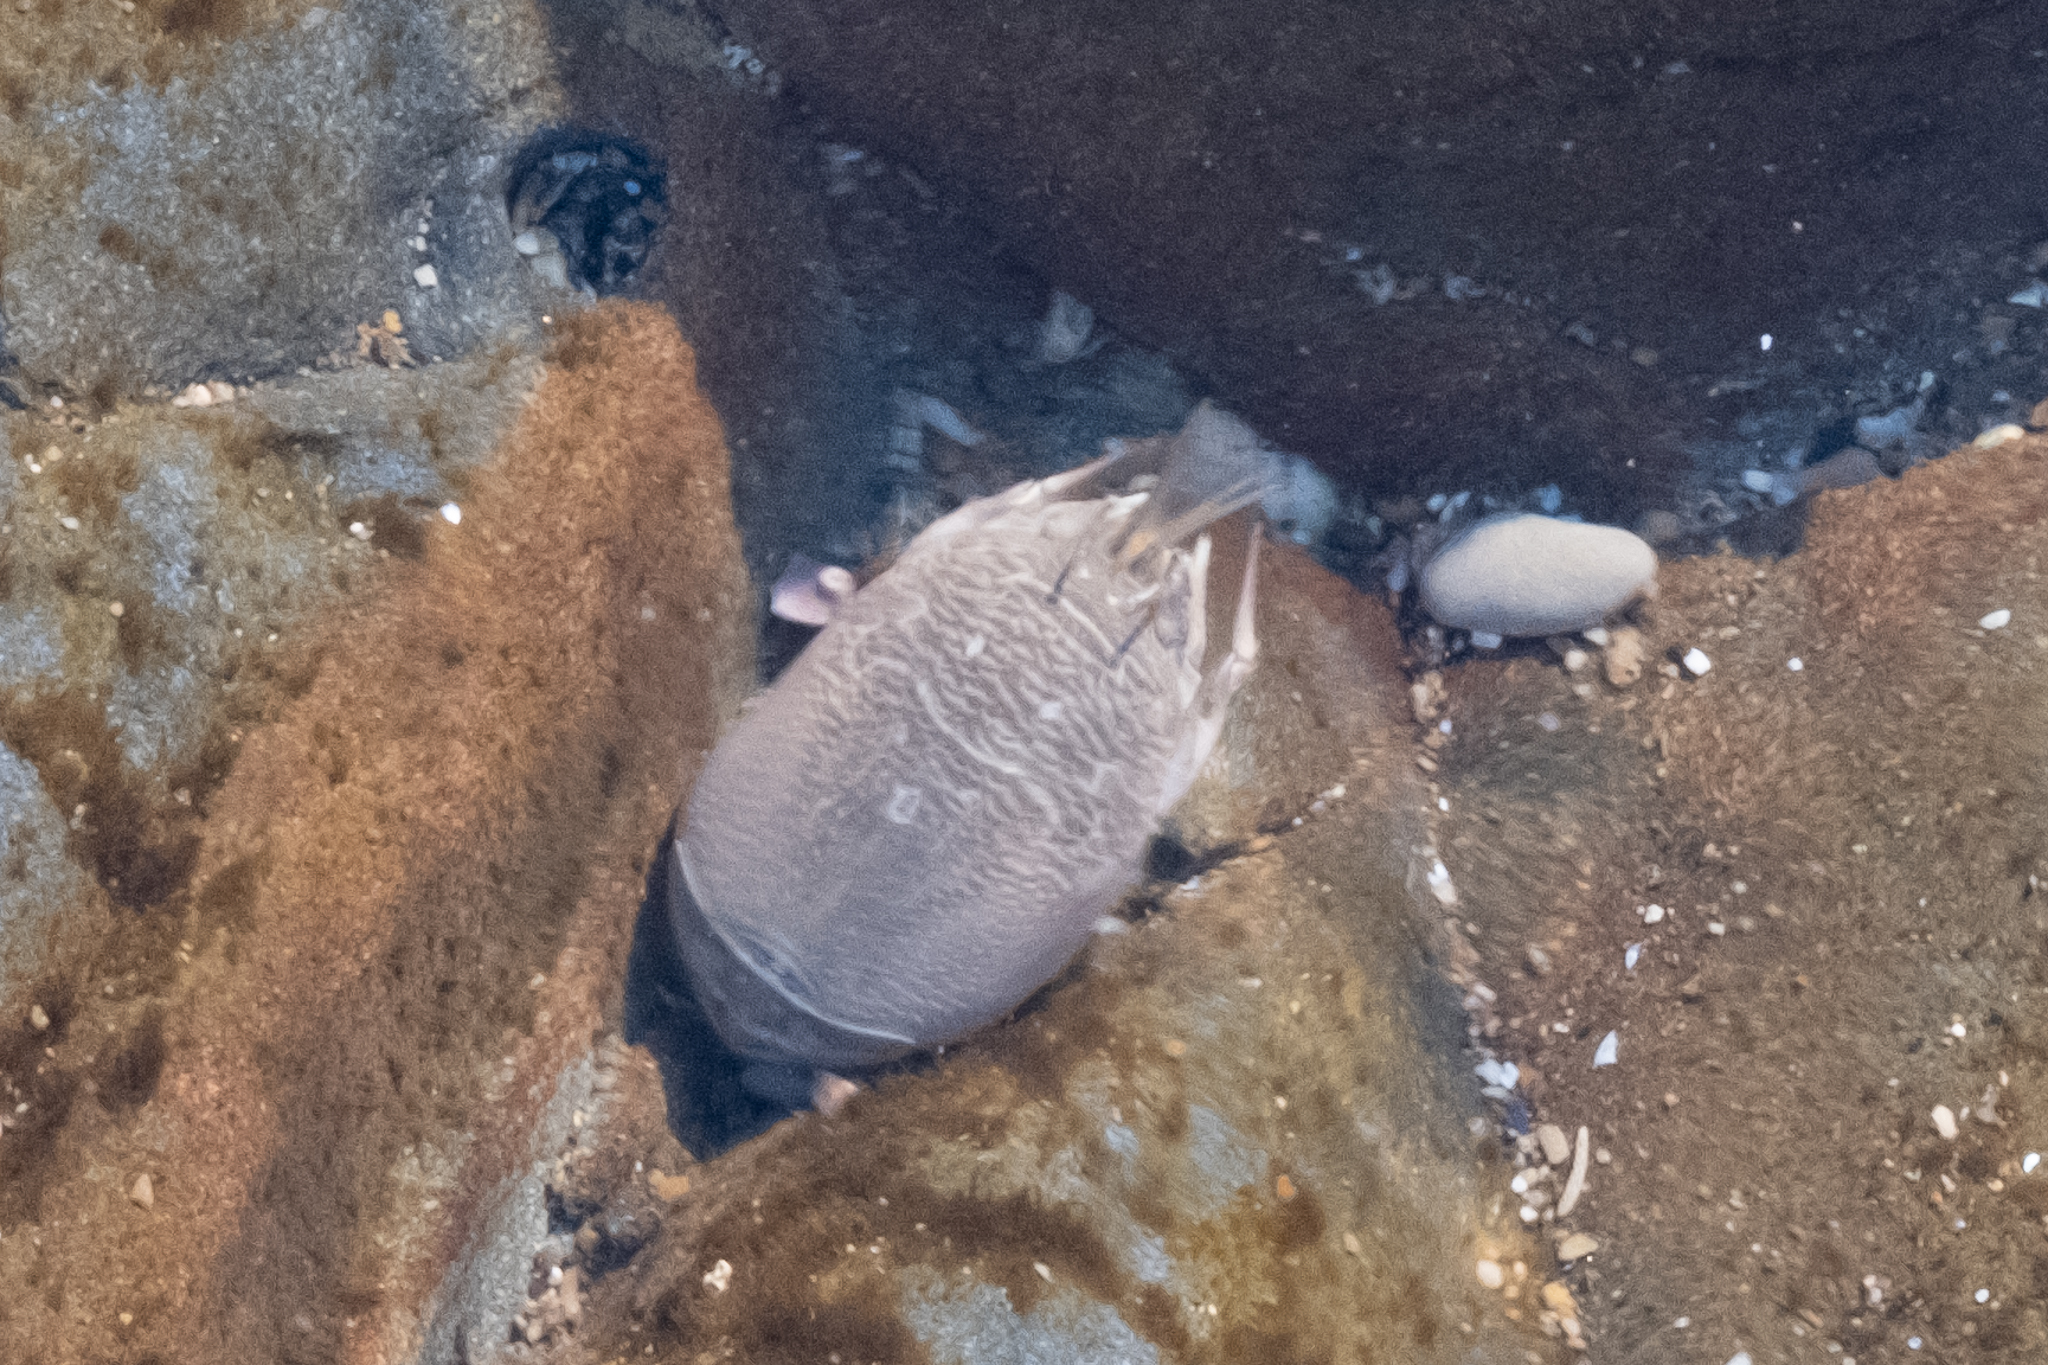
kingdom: Animalia
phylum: Arthropoda
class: Malacostraca
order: Decapoda
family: Hippidae
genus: Emerita
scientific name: Emerita analoga
